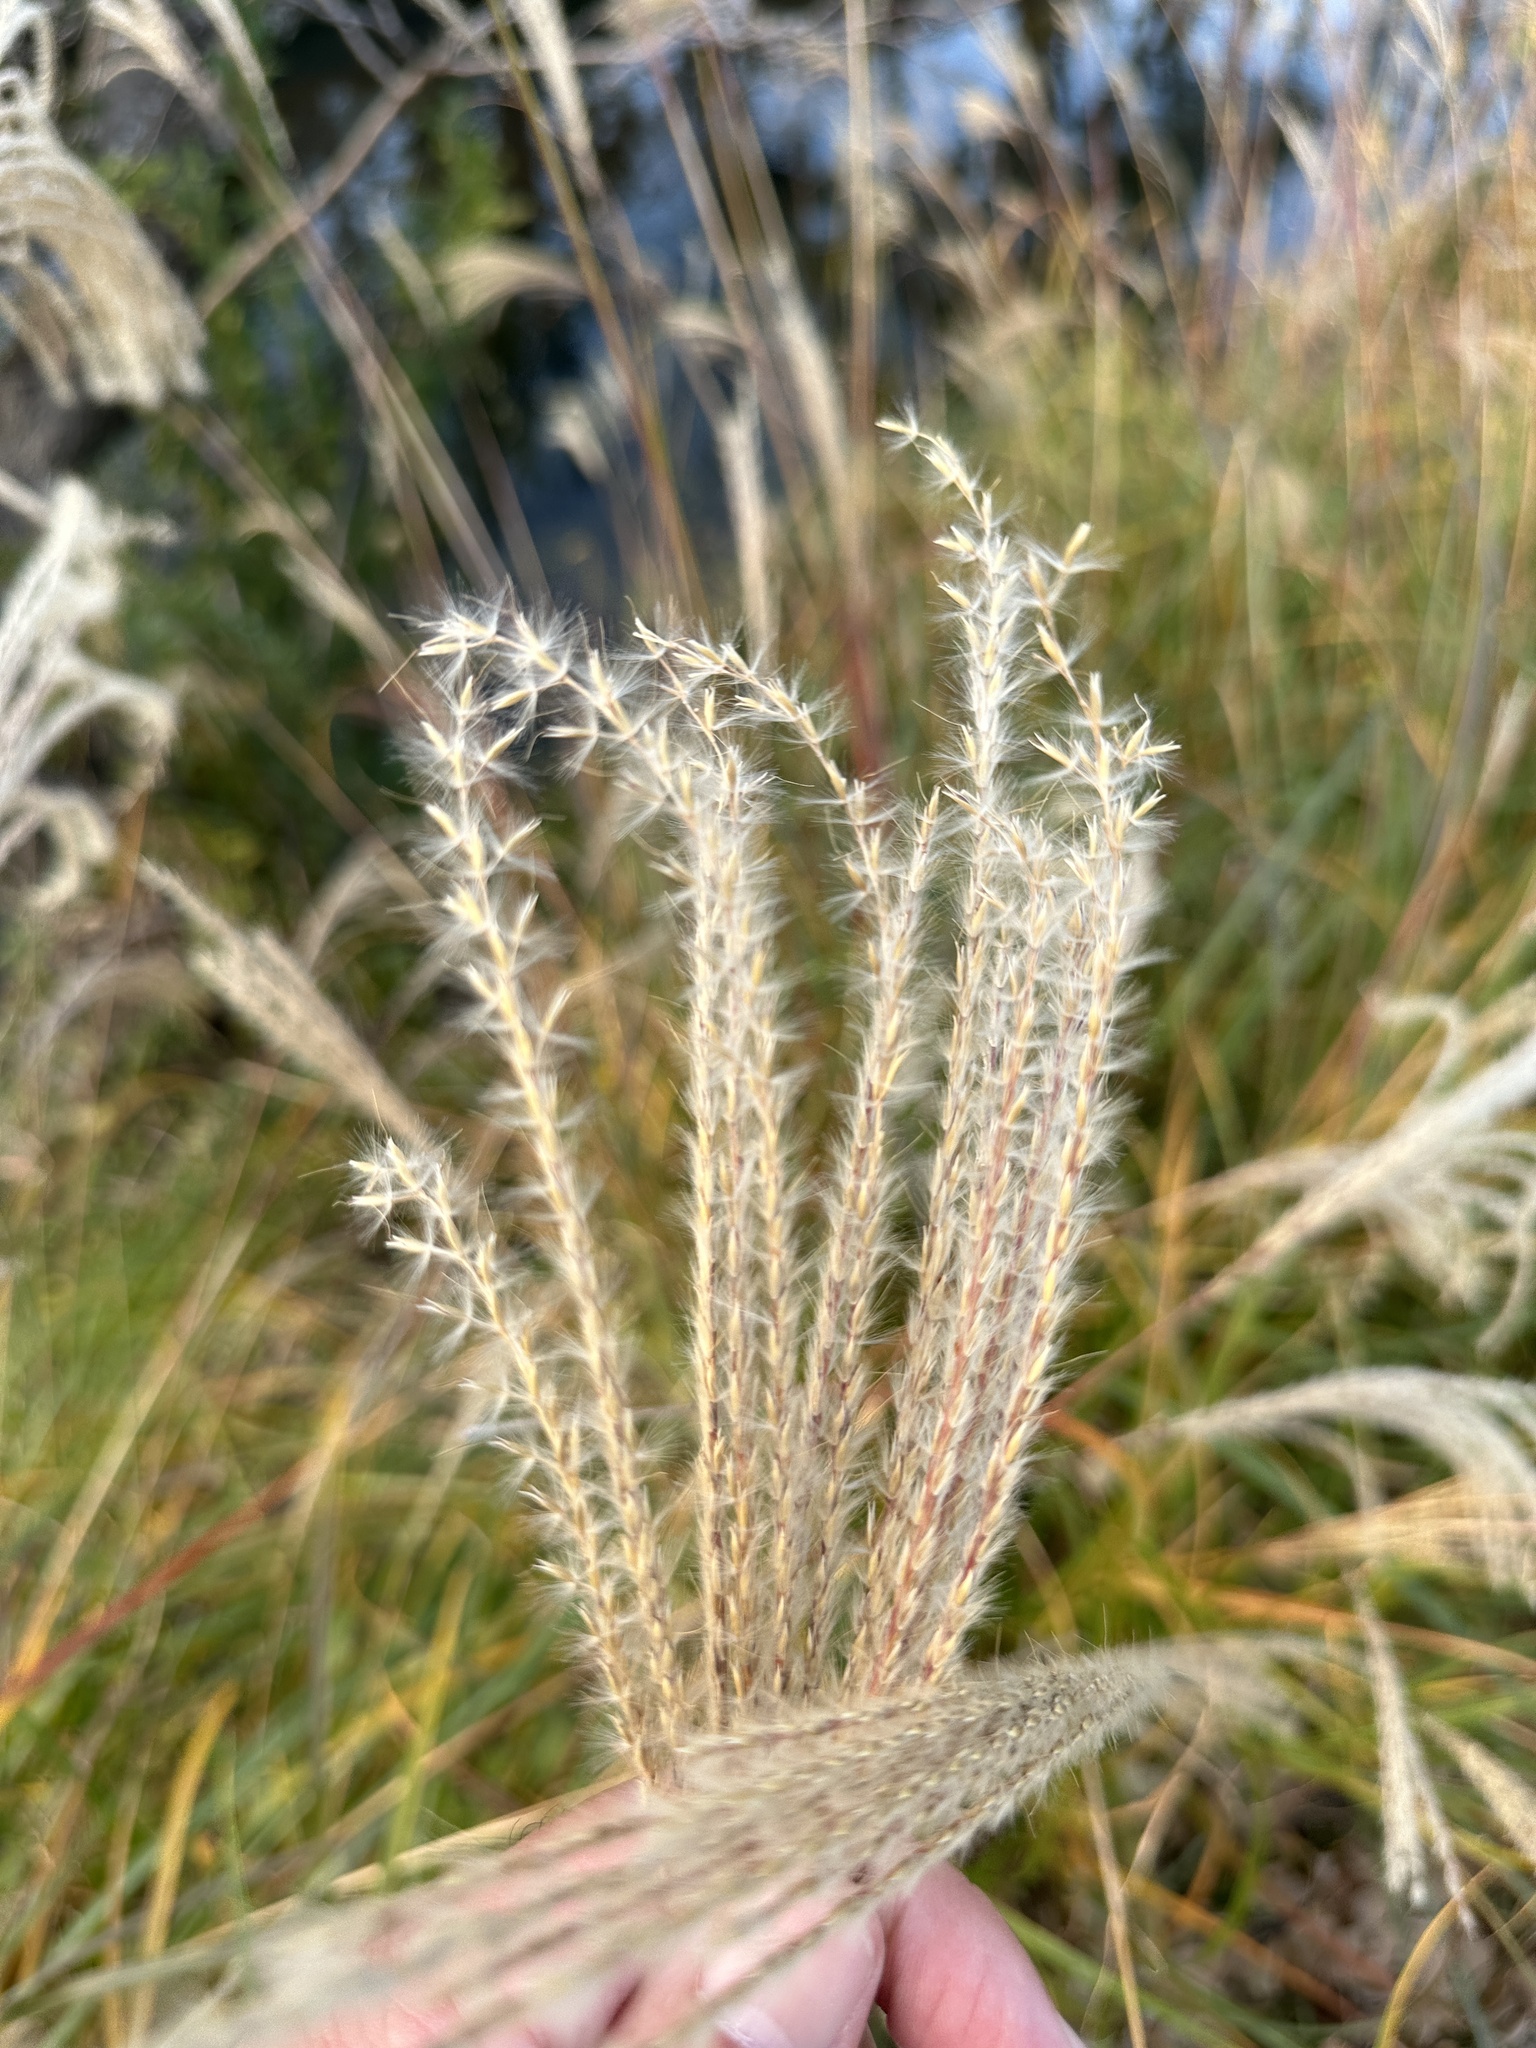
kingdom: Plantae
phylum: Tracheophyta
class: Liliopsida
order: Poales
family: Poaceae
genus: Miscanthus
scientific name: Miscanthus sinensis
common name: Chinese silvergrass
